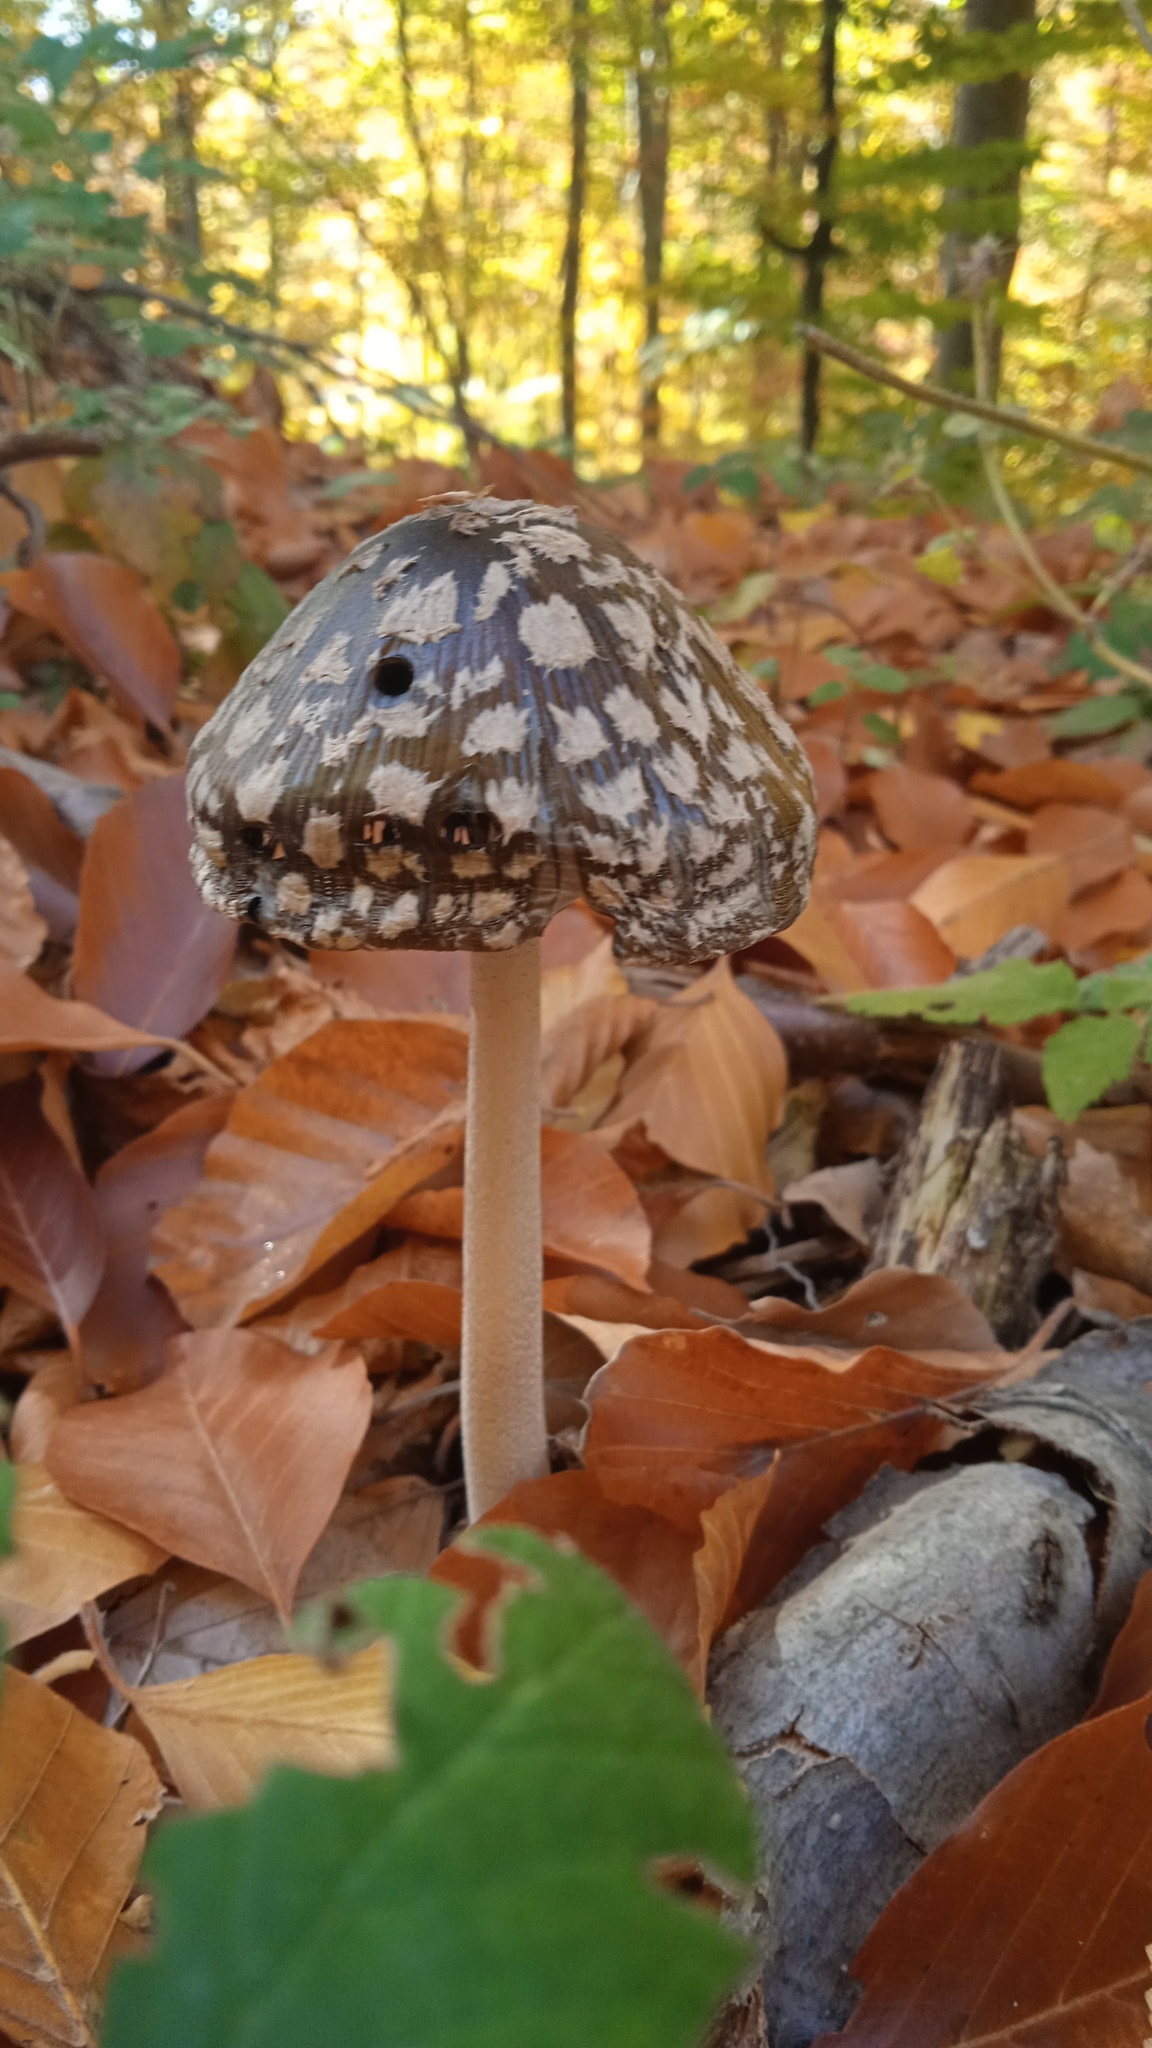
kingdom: Fungi
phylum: Basidiomycota
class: Agaricomycetes
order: Agaricales
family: Psathyrellaceae
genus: Coprinopsis
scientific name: Coprinopsis picacea
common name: Magpie inkcap
